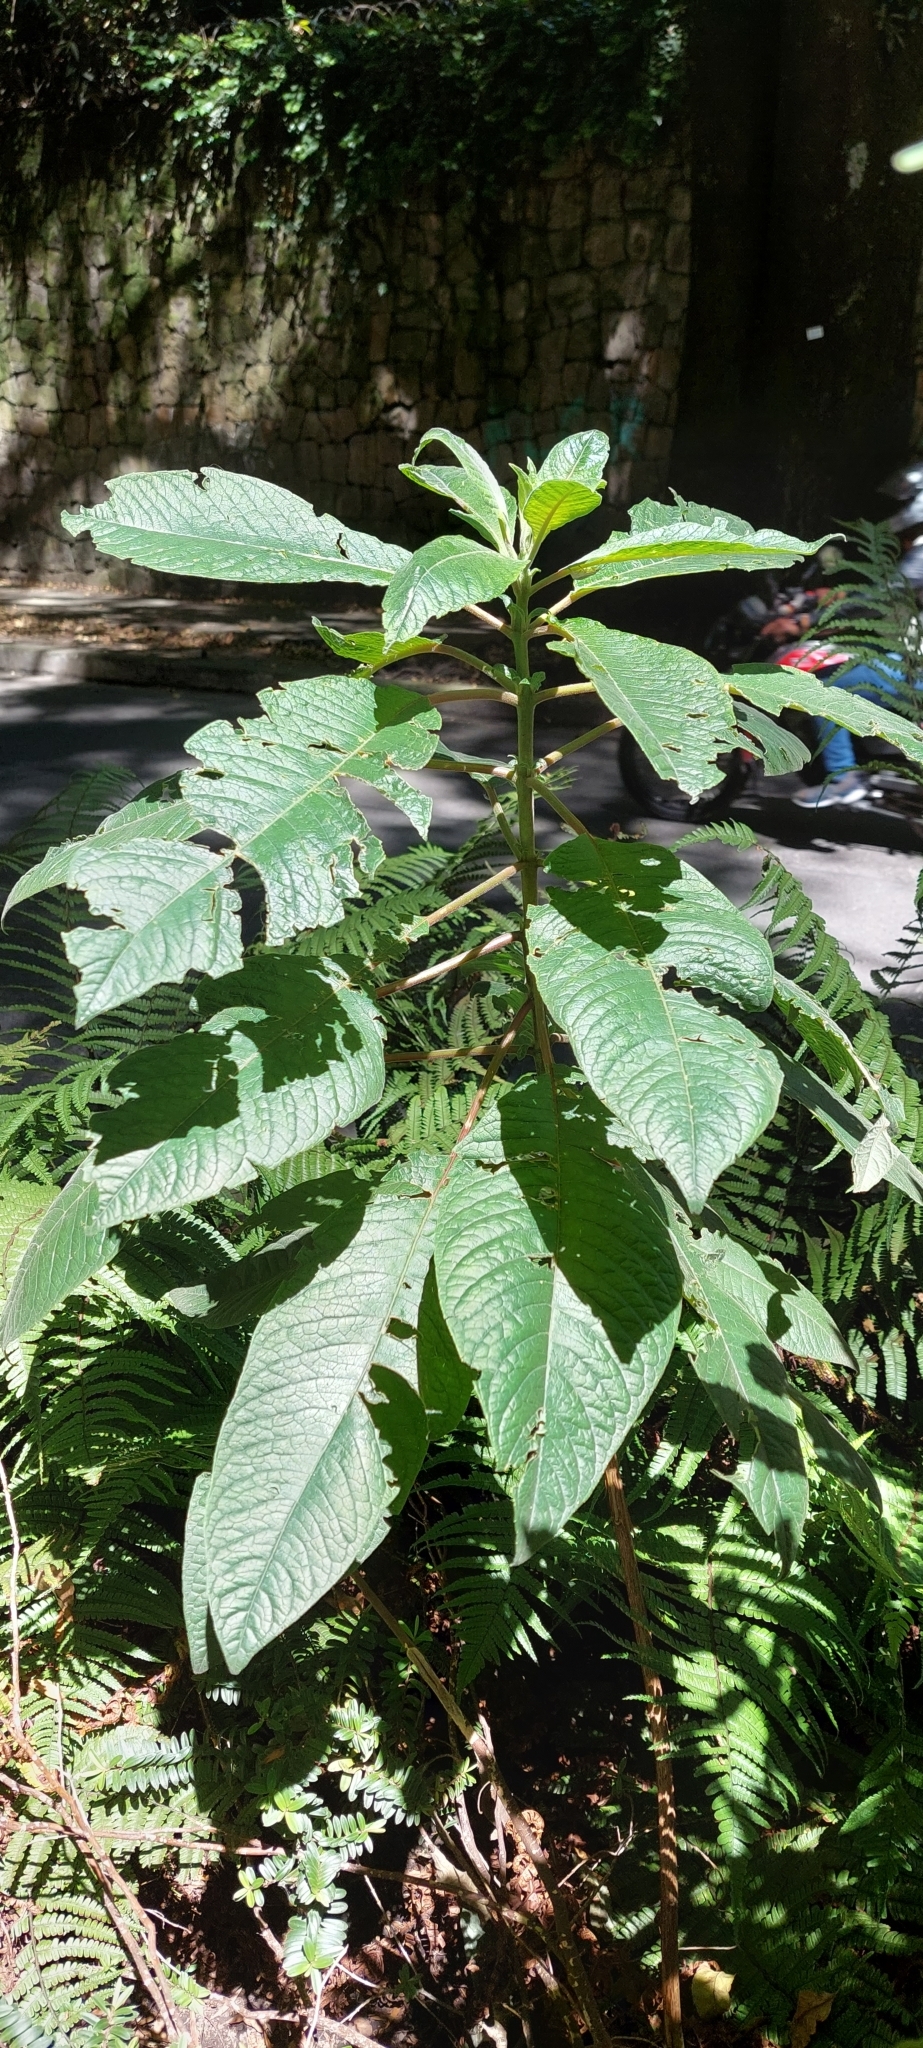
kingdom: Plantae
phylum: Tracheophyta
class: Magnoliopsida
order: Myrtales
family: Onagraceae
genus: Fuchsia
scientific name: Fuchsia boliviana
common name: Bolivian fuchsia
